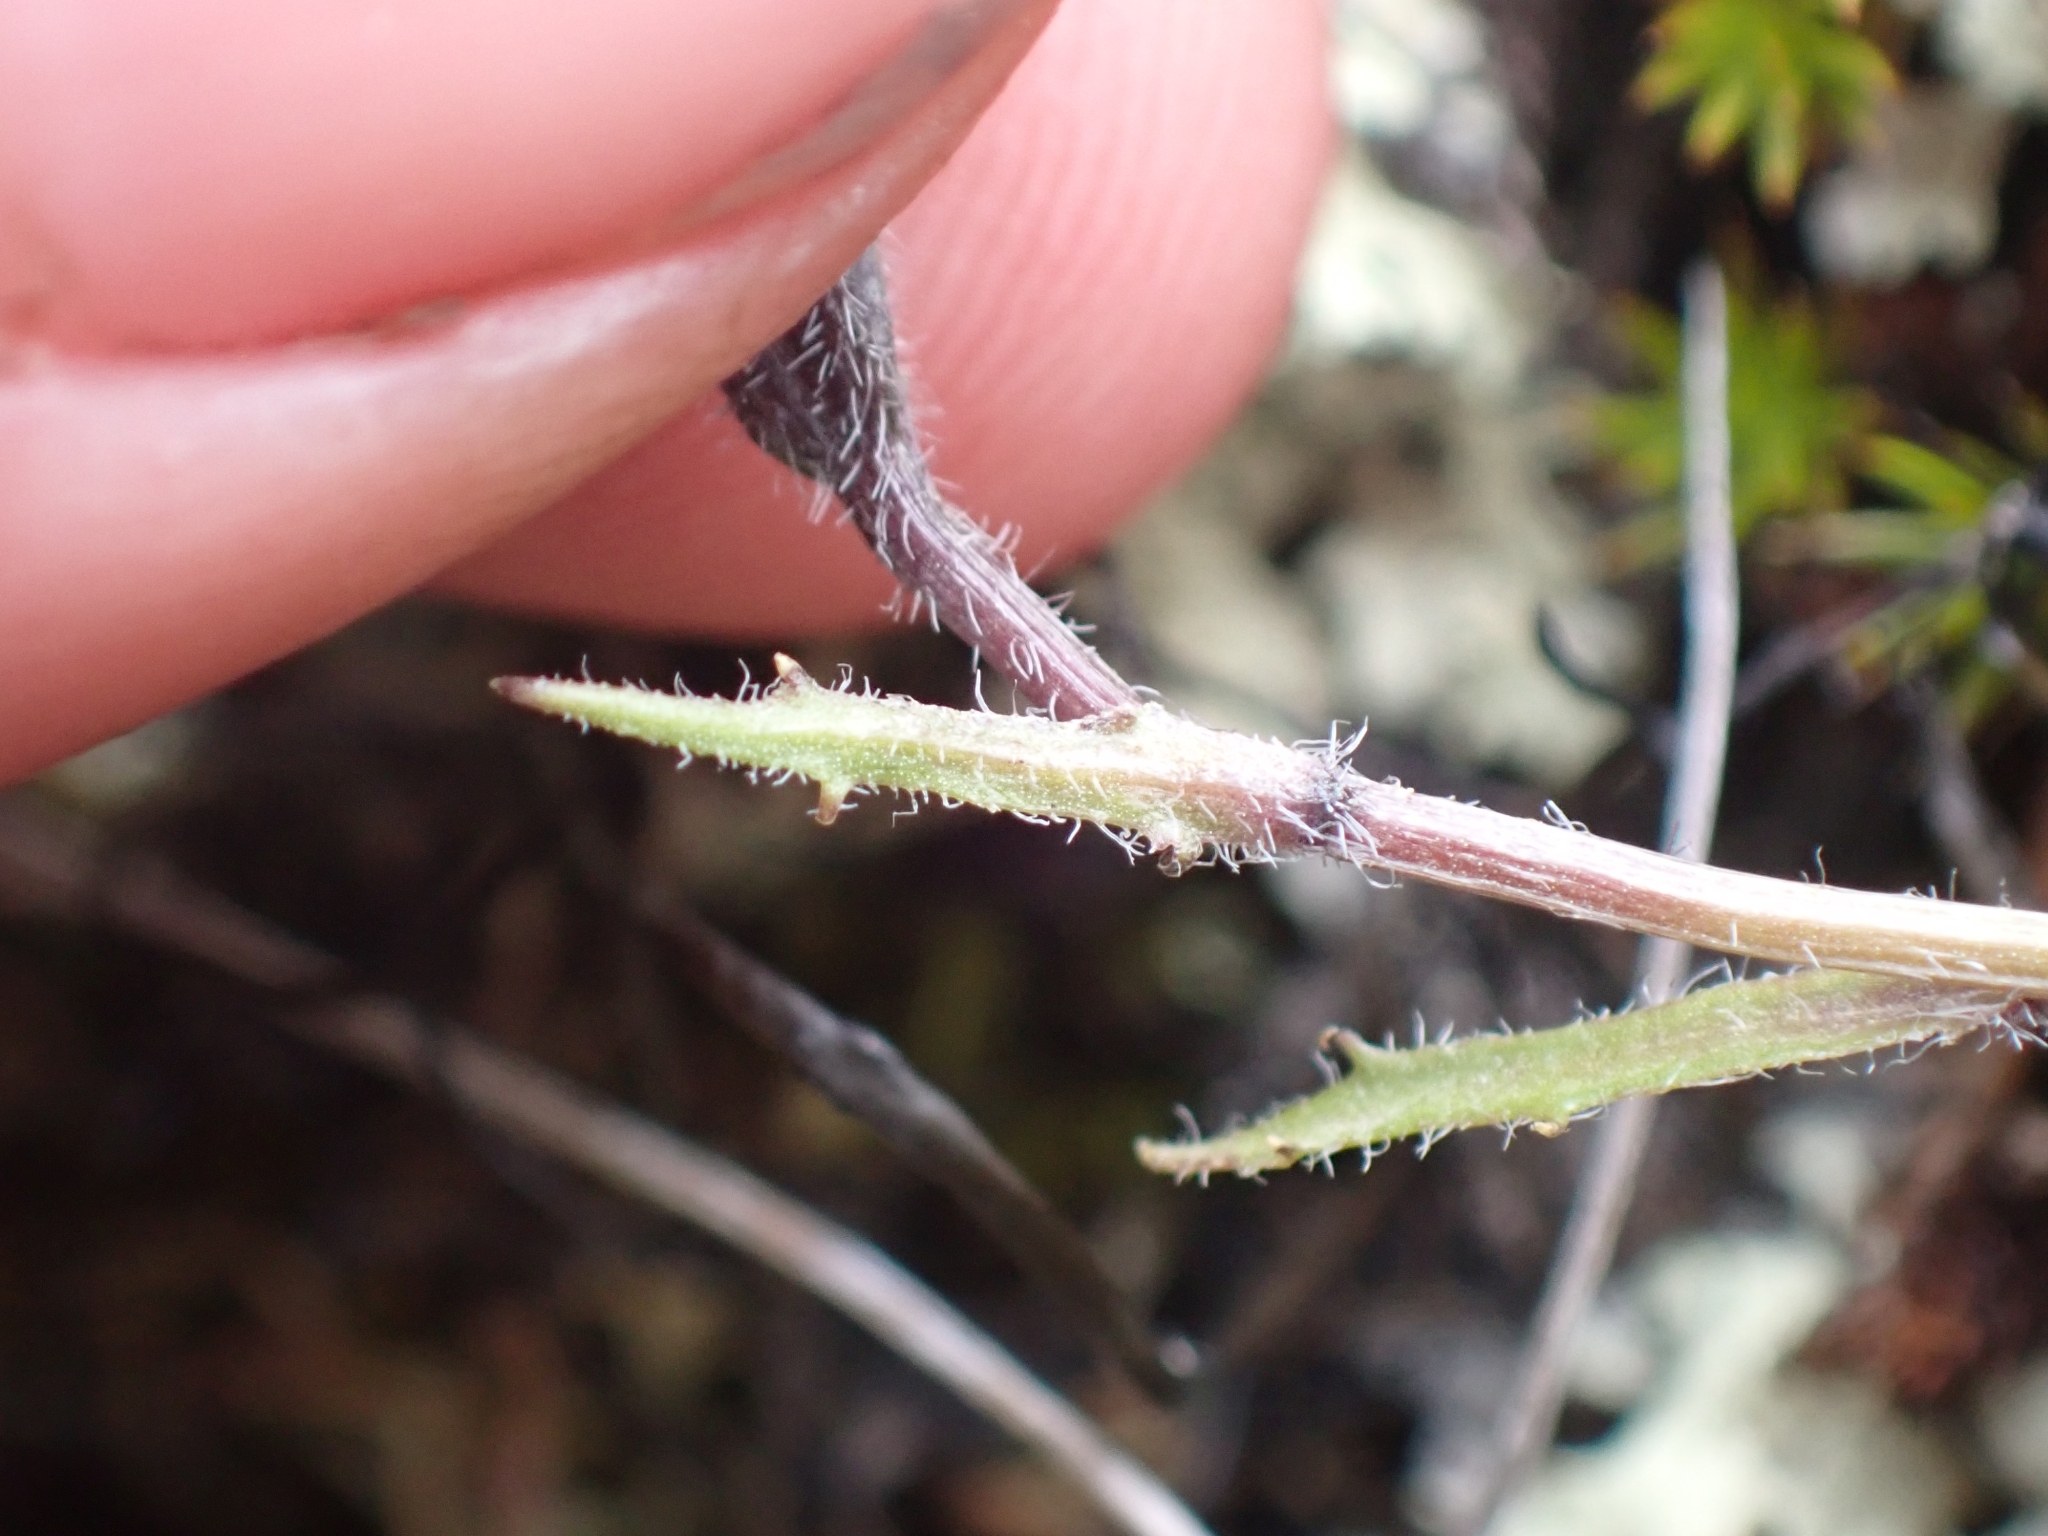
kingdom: Plantae
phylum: Tracheophyta
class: Magnoliopsida
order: Asterales
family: Campanulaceae
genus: Campanula
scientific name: Campanula lasiocarpa
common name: Mountain harebell
